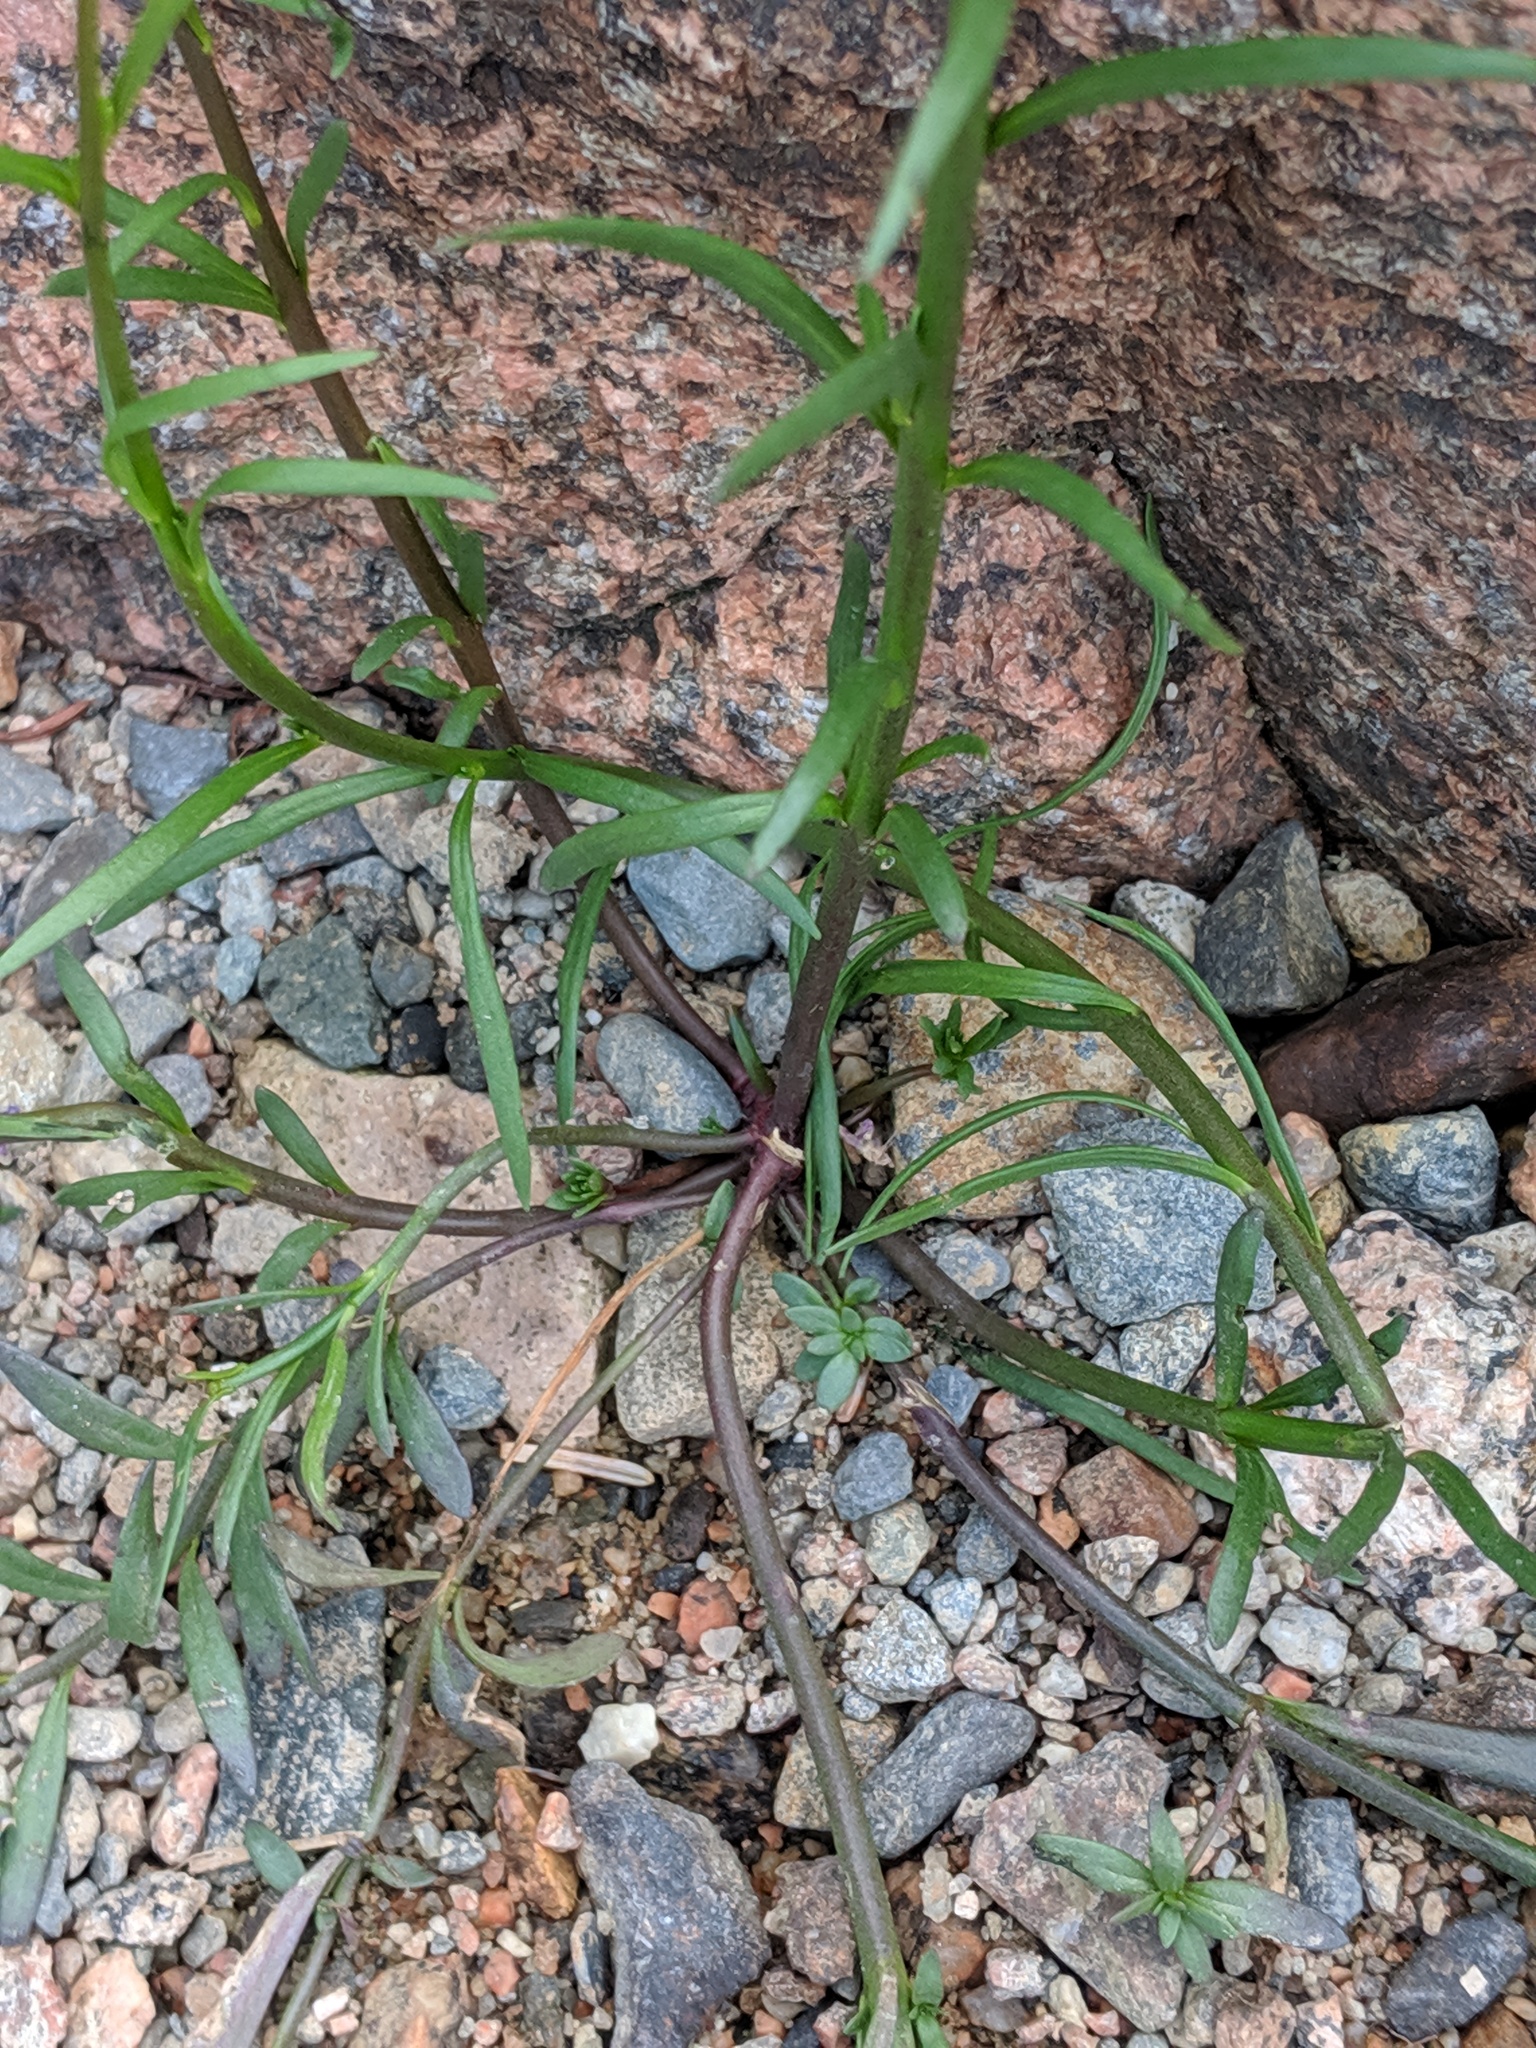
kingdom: Plantae
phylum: Tracheophyta
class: Magnoliopsida
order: Lamiales
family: Plantaginaceae
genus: Nuttallanthus
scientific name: Nuttallanthus canadensis
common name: Blue toadflax
